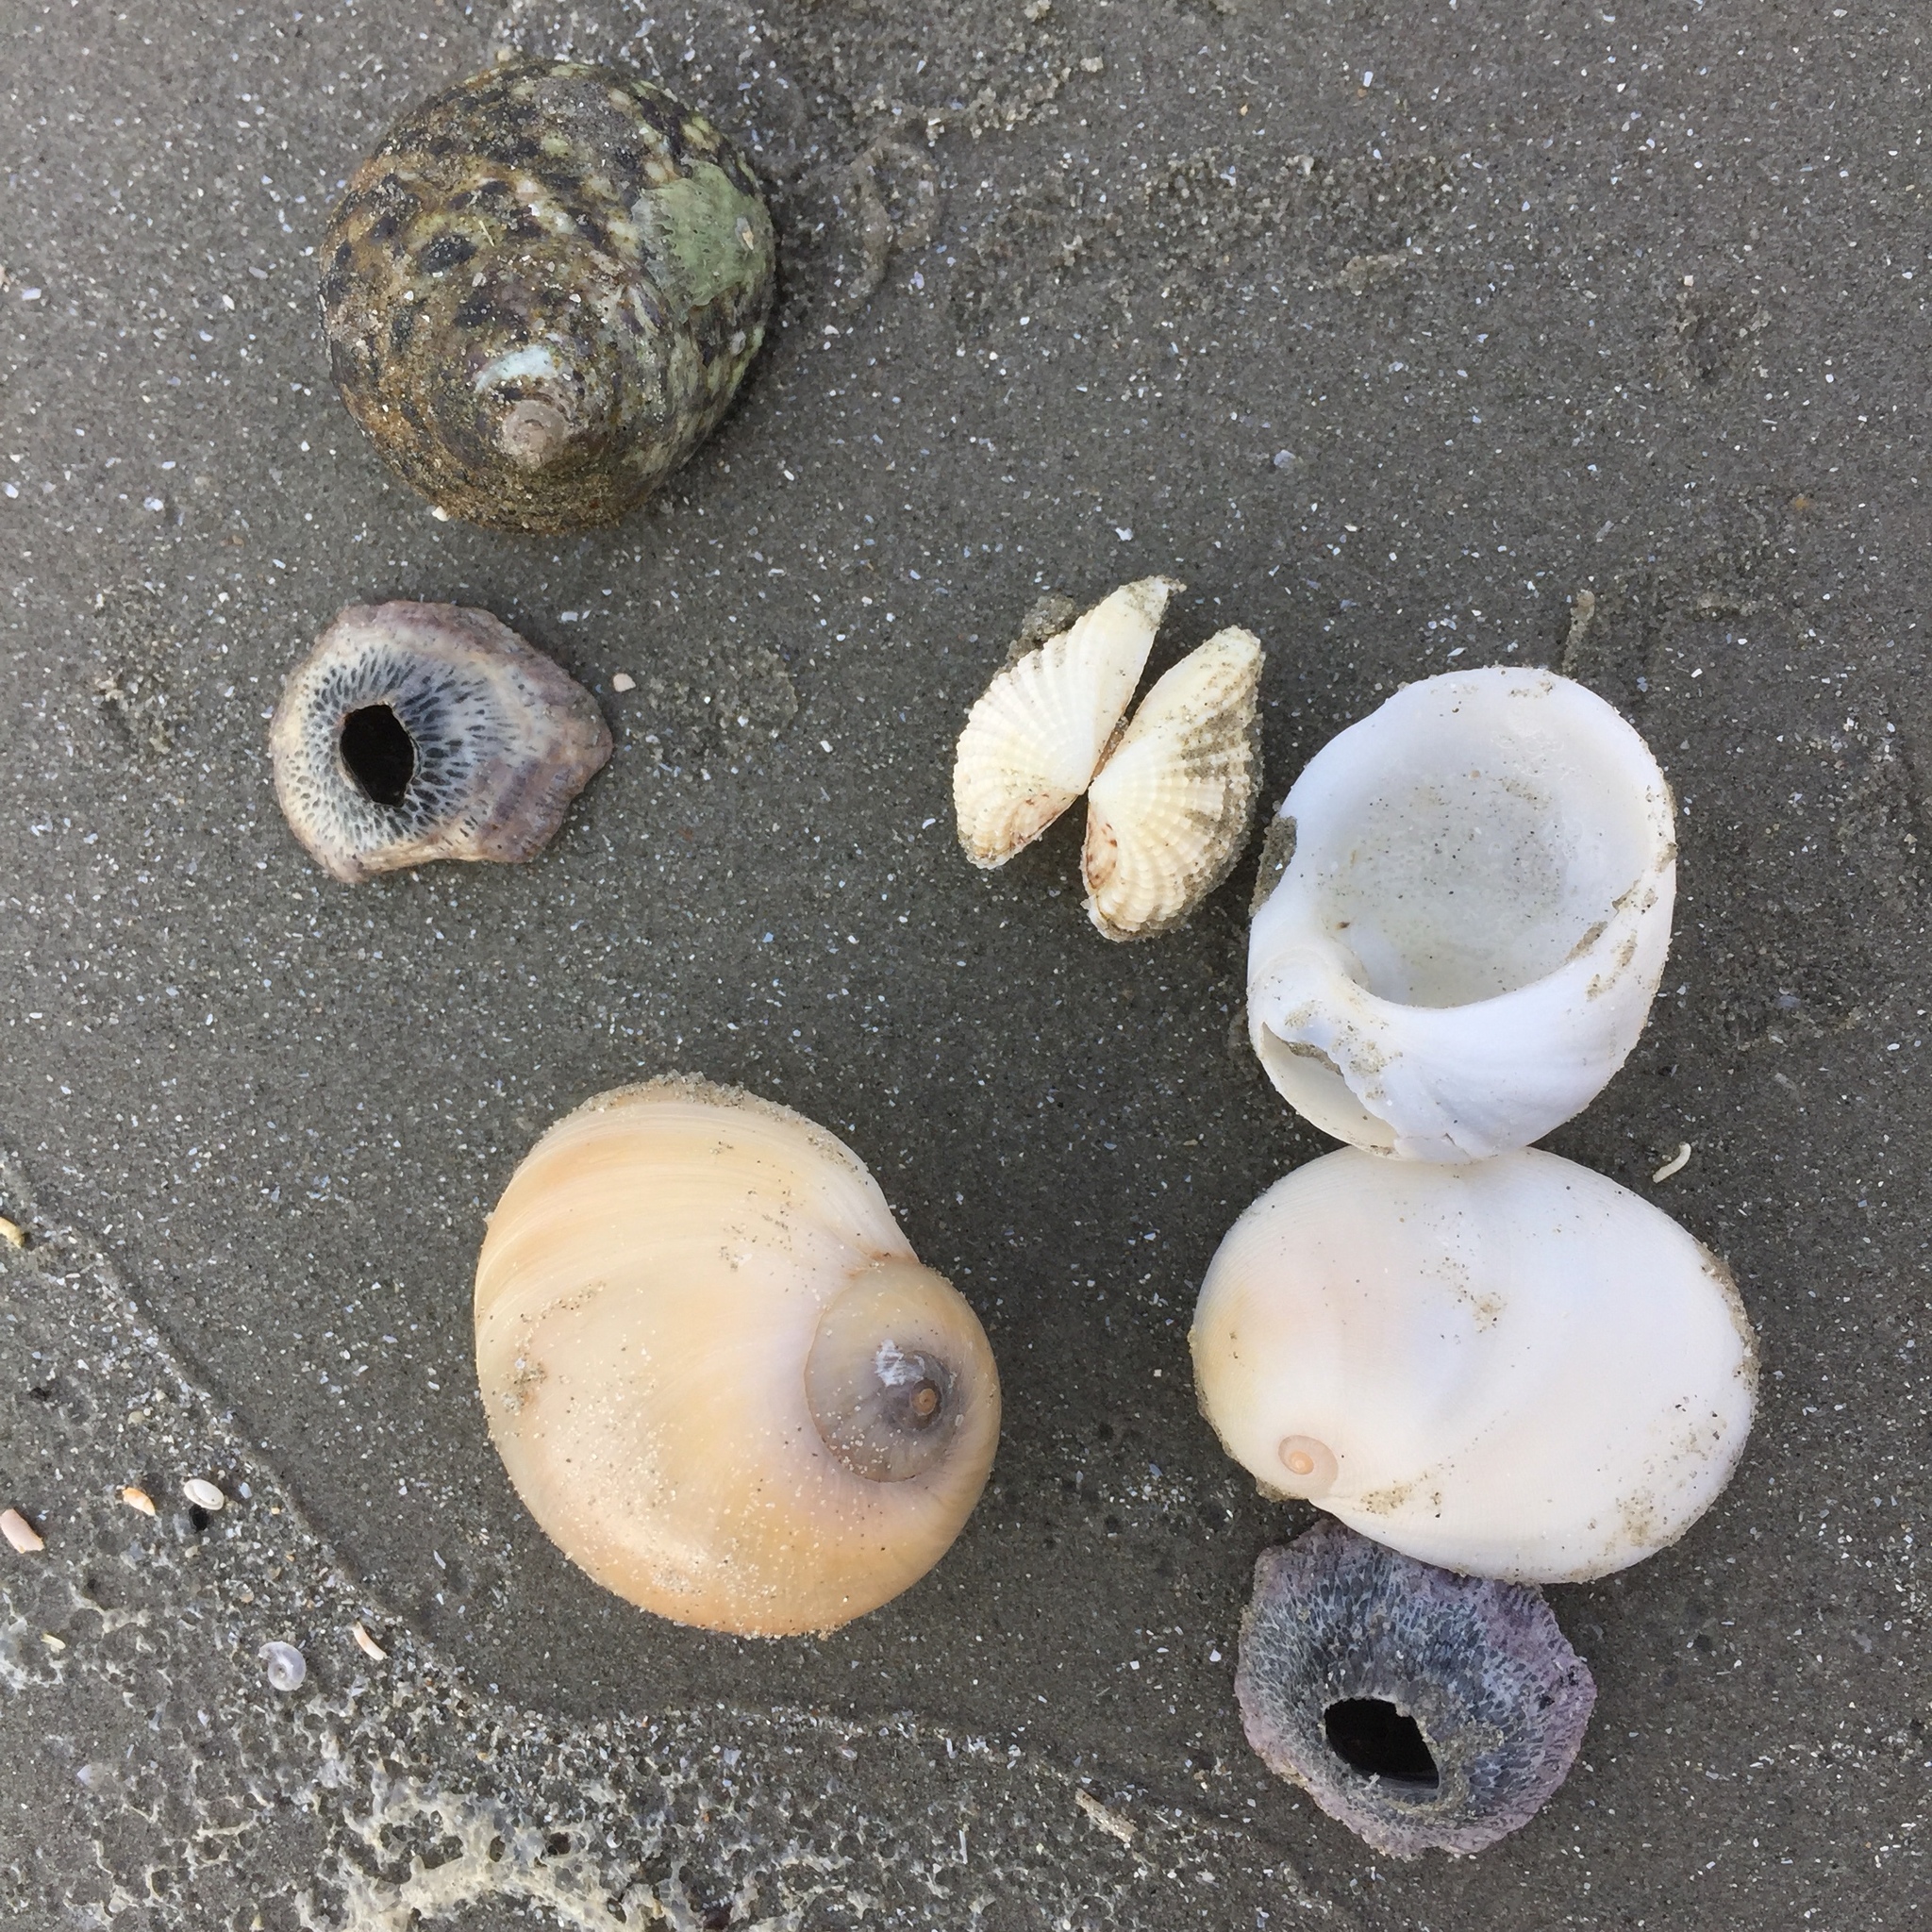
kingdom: Animalia
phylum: Arthropoda
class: Maxillopoda
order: Sessilia
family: Tetraclitidae
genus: Tetraclita
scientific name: Tetraclita japonica
